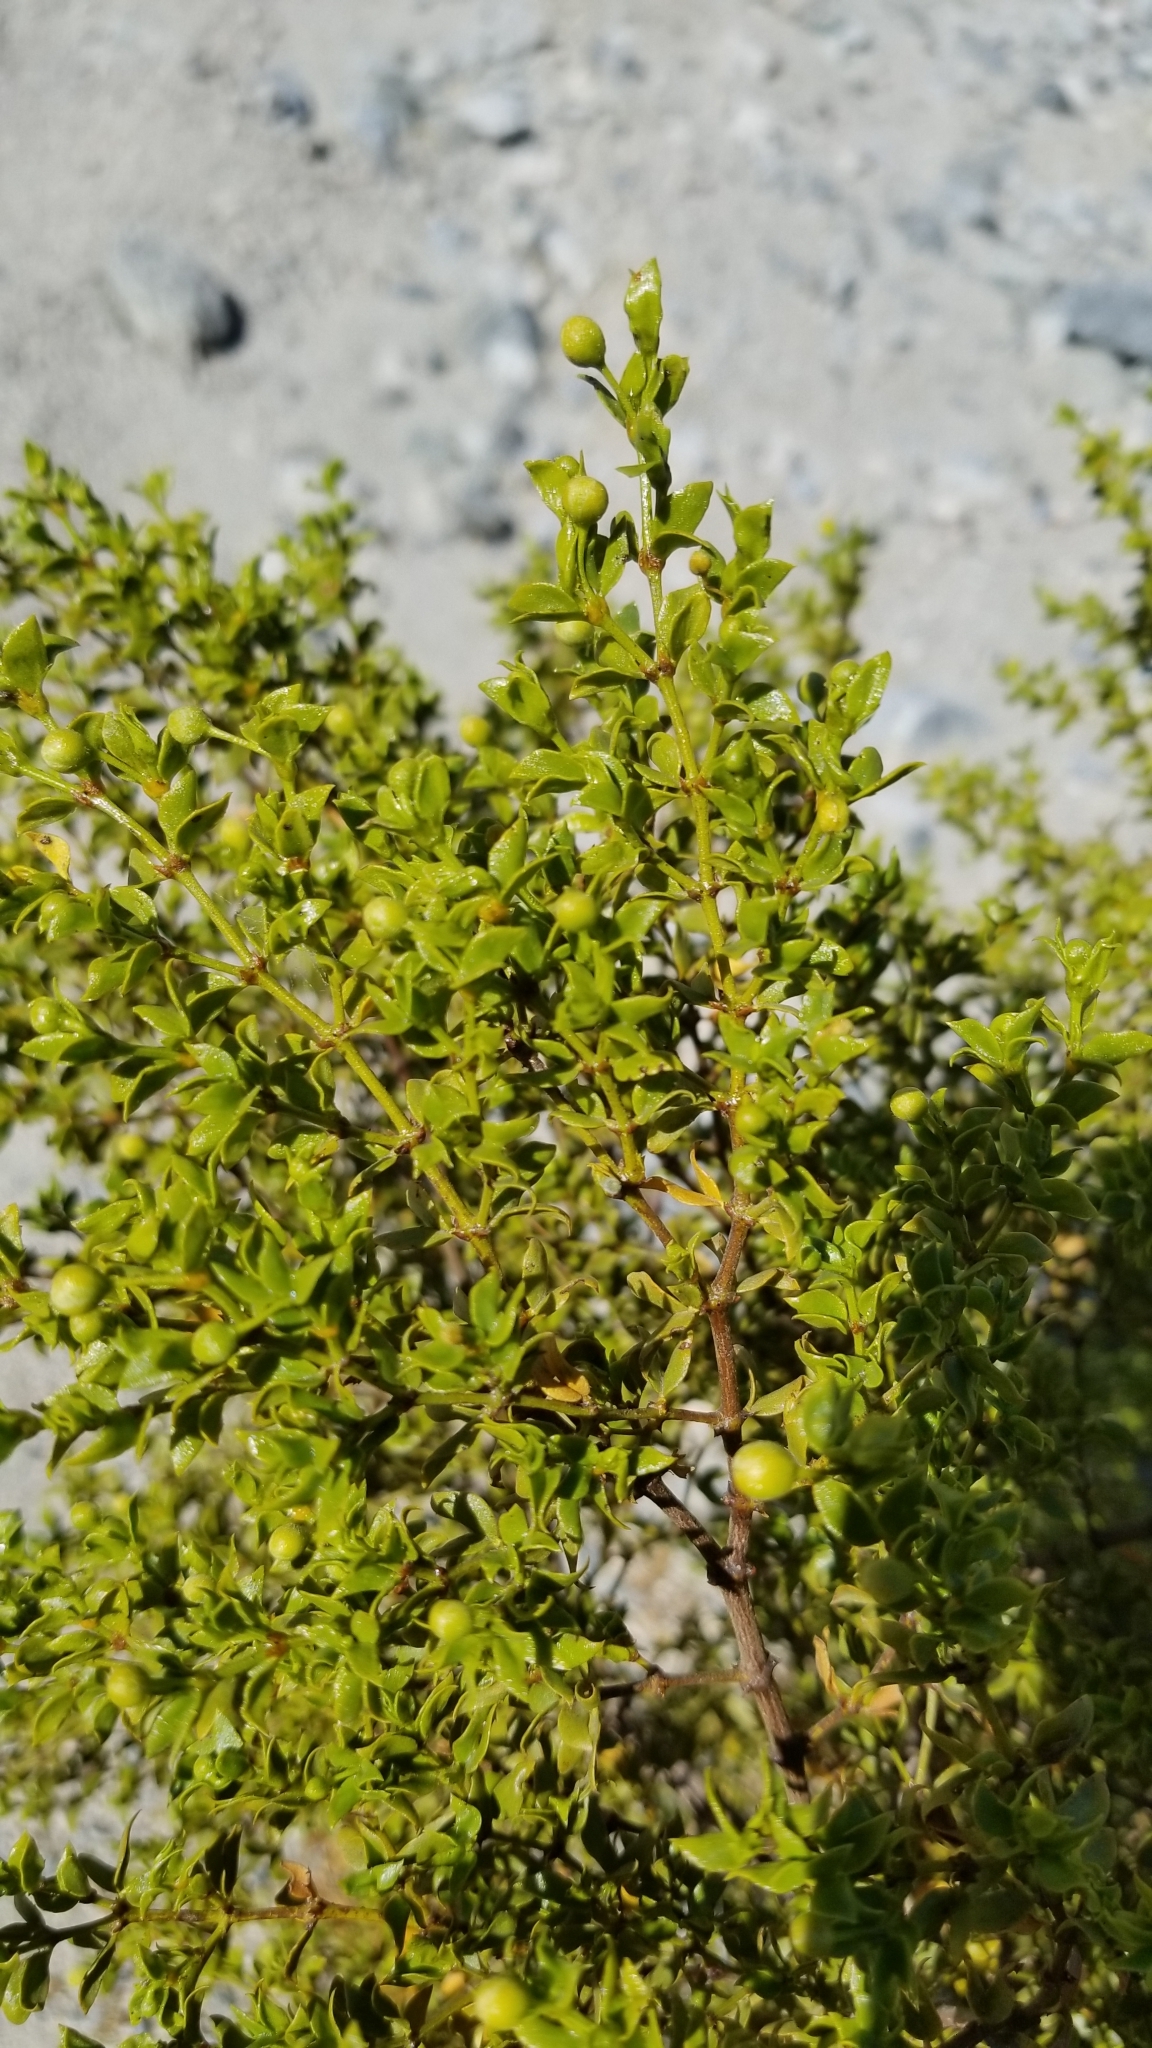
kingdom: Plantae
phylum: Tracheophyta
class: Magnoliopsida
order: Zygophyllales
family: Zygophyllaceae
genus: Larrea
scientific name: Larrea tridentata
